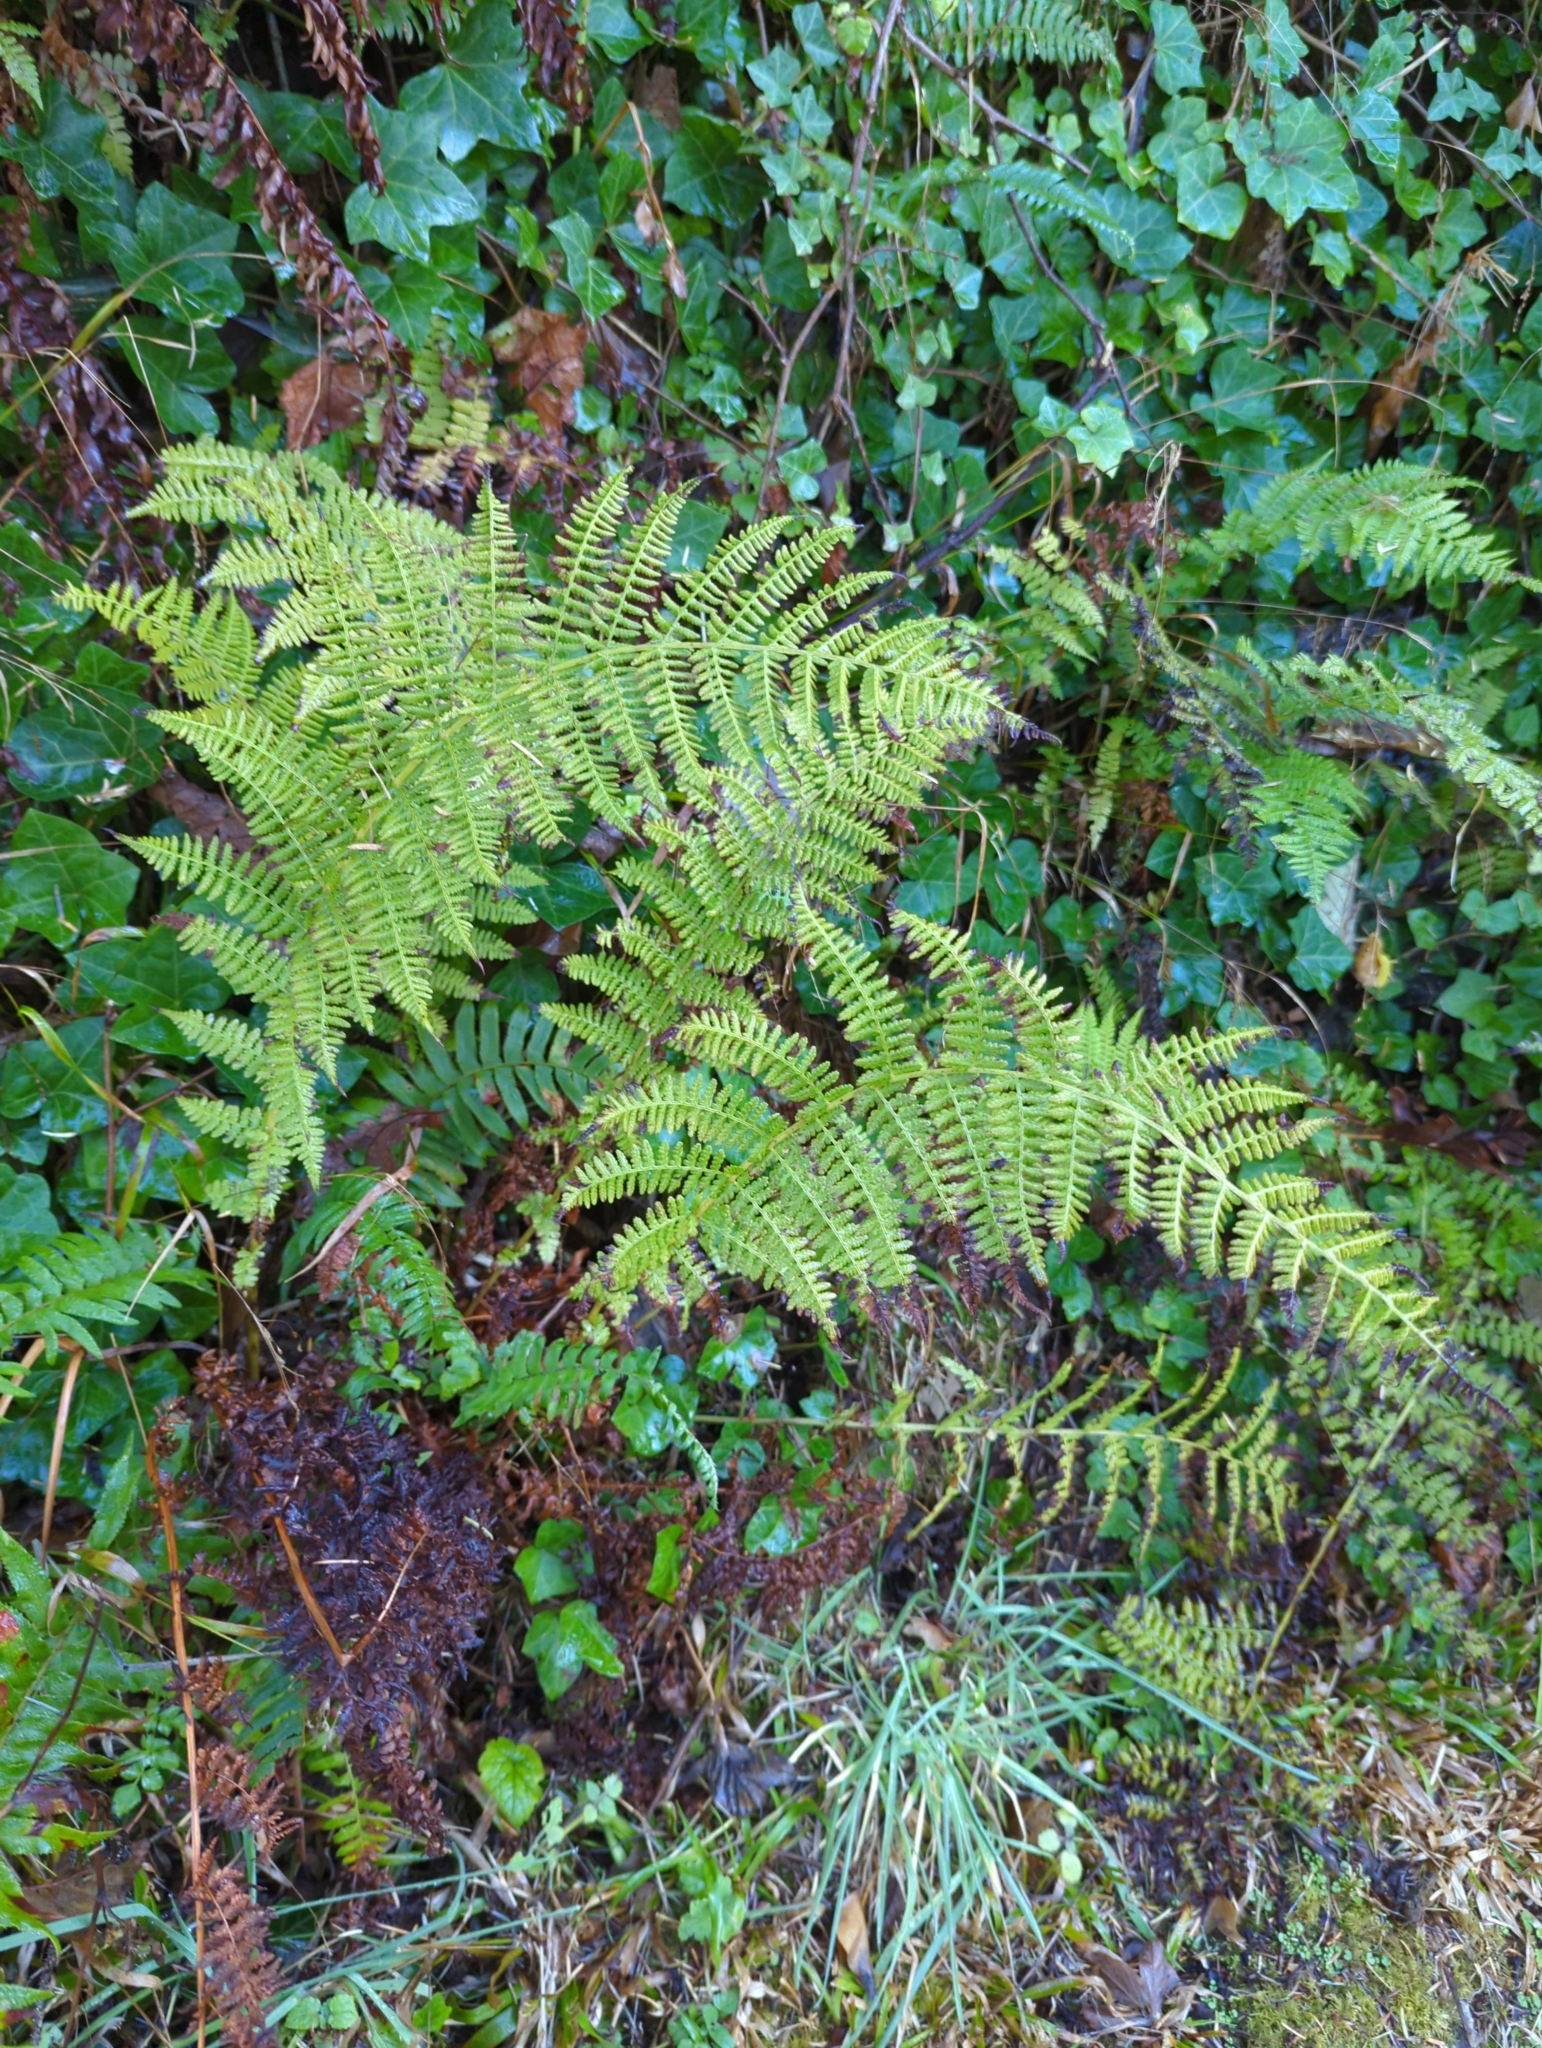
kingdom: Plantae
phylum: Tracheophyta
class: Polypodiopsida
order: Polypodiales
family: Athyriaceae
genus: Athyrium
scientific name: Athyrium filix-femina
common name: Lady fern
